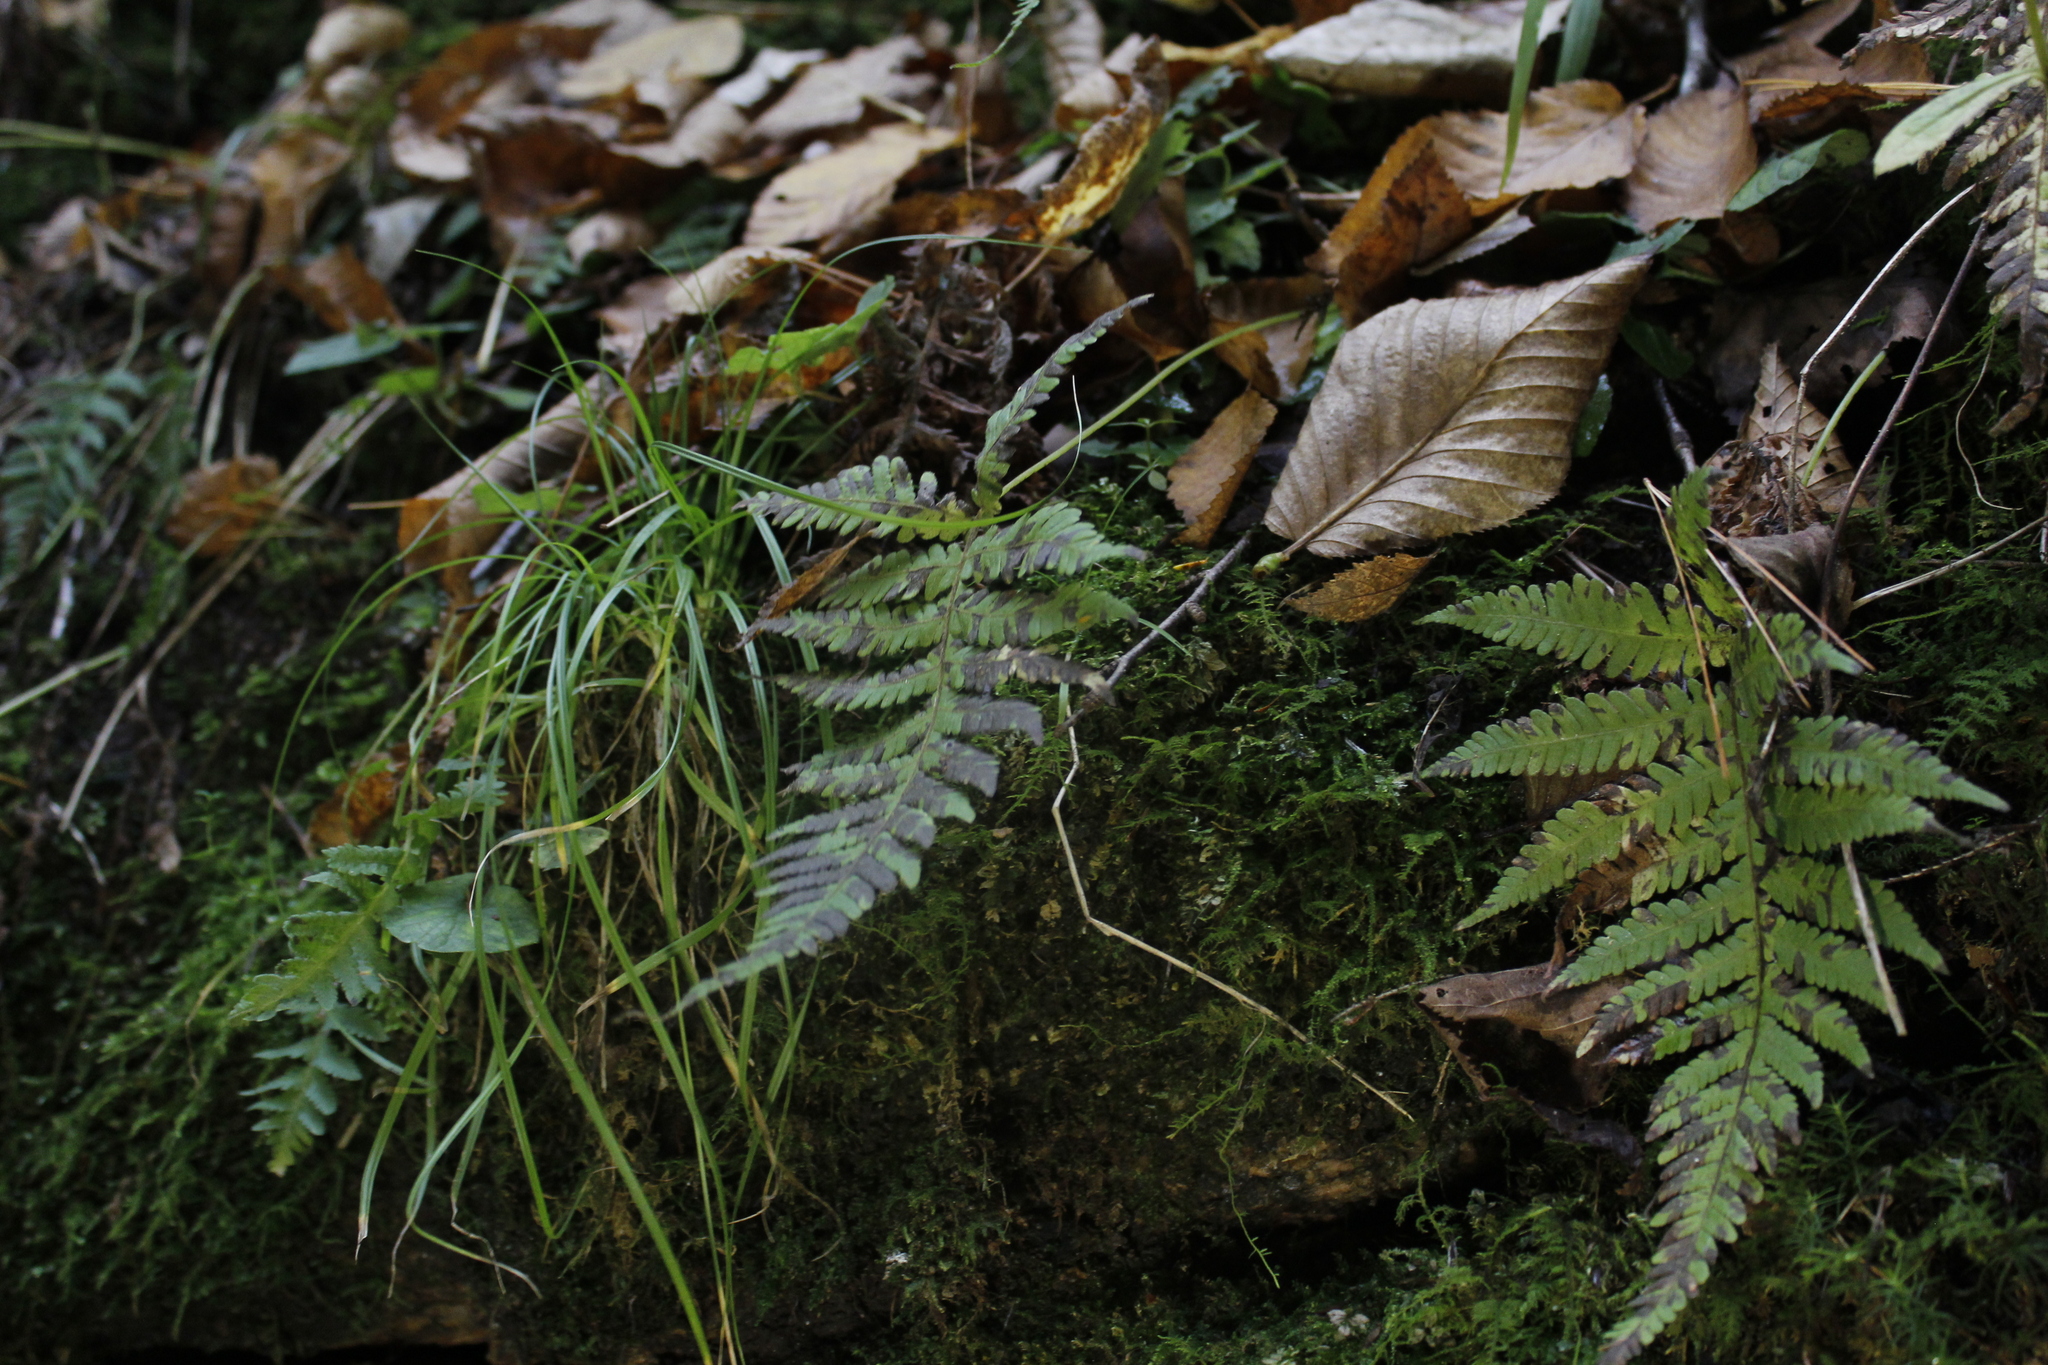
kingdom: Plantae
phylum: Tracheophyta
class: Polypodiopsida
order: Polypodiales
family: Thelypteridaceae
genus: Phegopteris
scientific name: Phegopteris connectilis
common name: Beech fern
